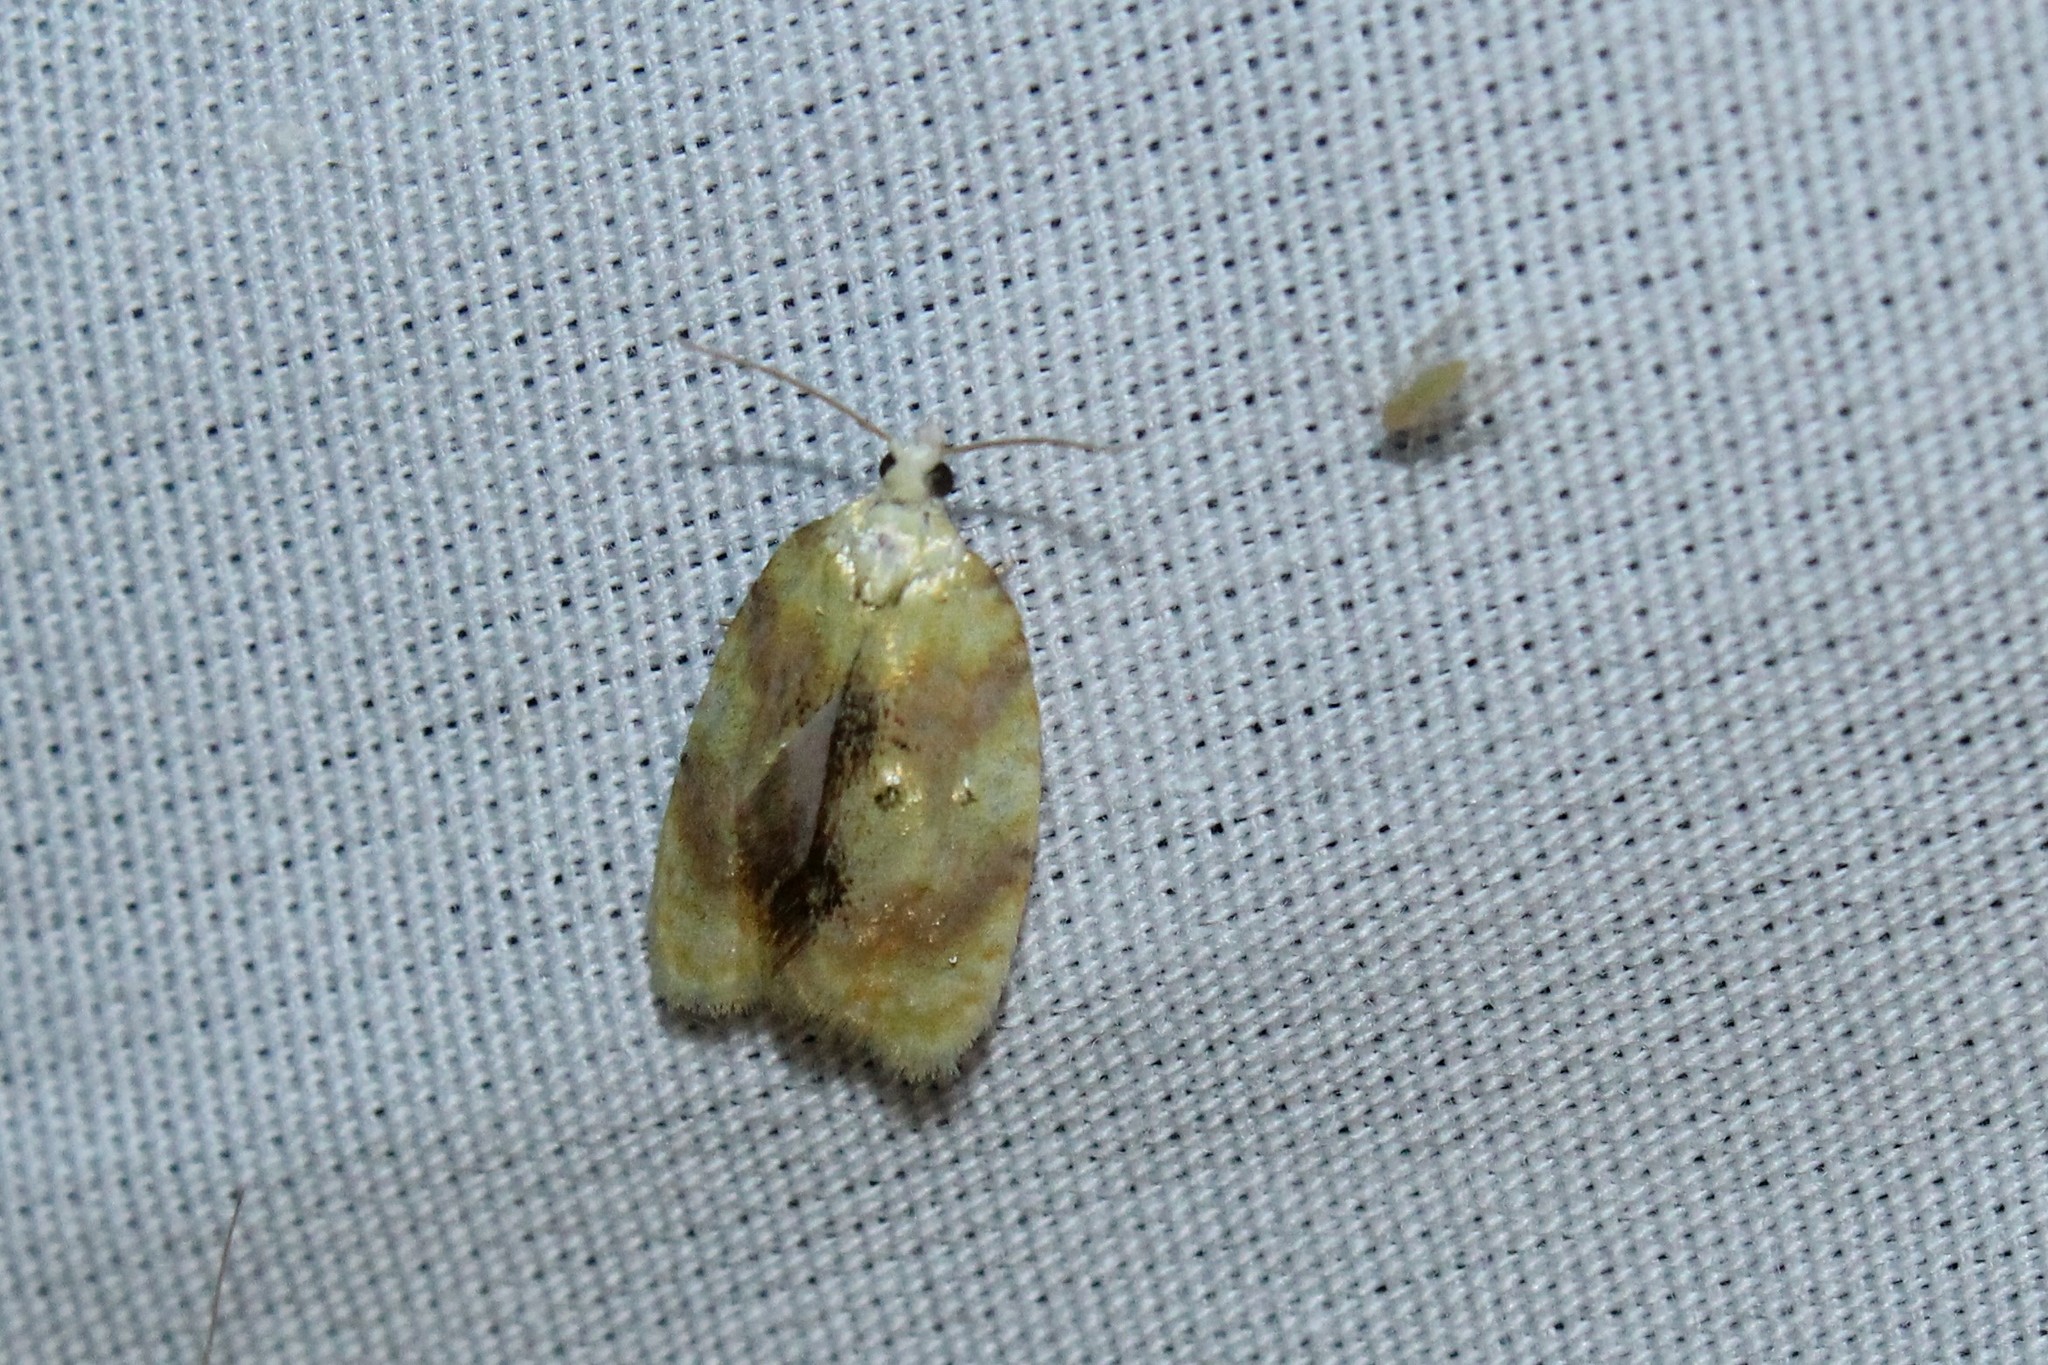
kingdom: Animalia
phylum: Arthropoda
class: Insecta
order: Lepidoptera
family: Tortricidae
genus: Acleris
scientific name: Acleris semipurpurana
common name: Oak leaftier moth
